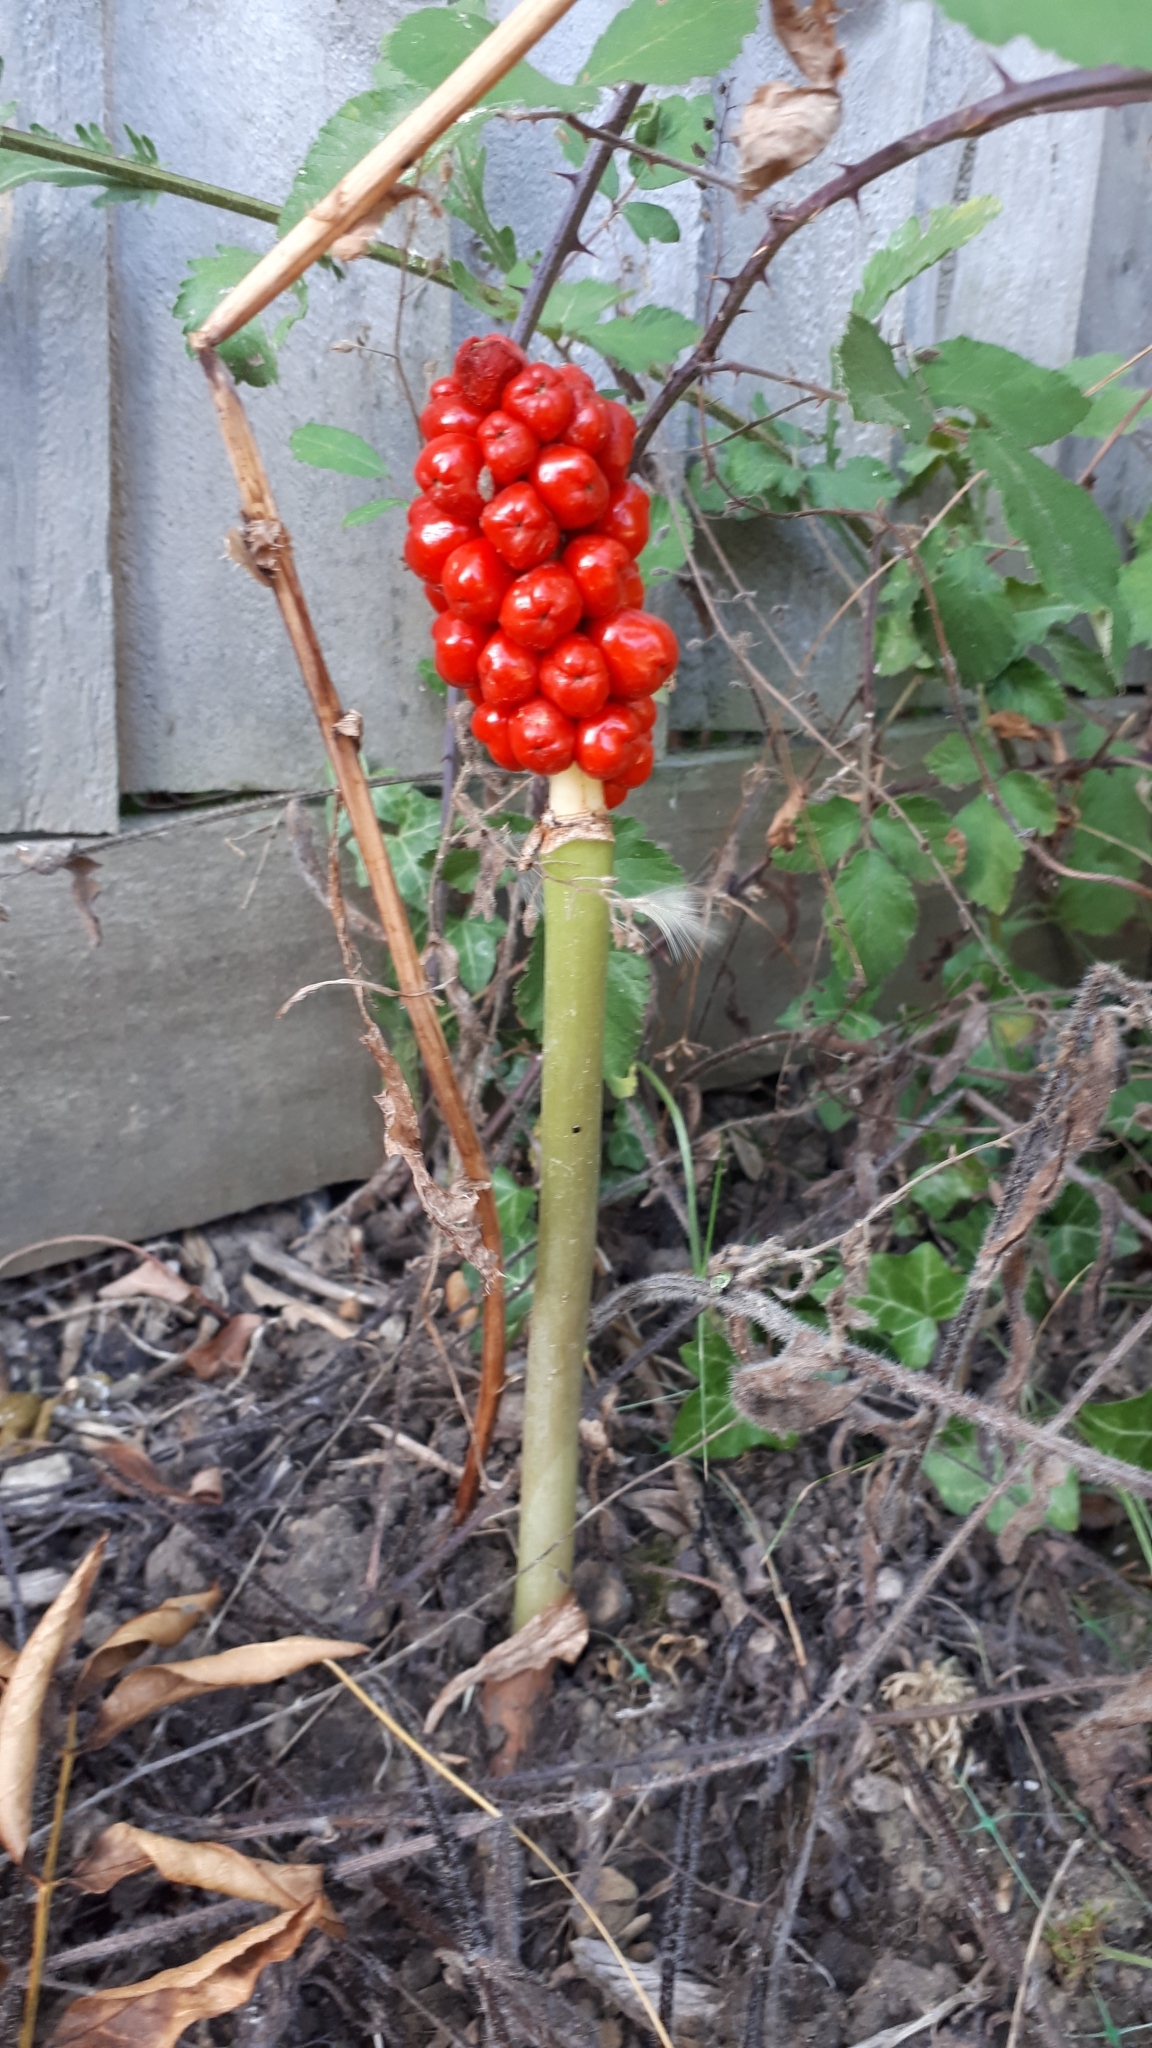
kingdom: Plantae
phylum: Tracheophyta
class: Liliopsida
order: Alismatales
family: Araceae
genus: Arum
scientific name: Arum maculatum
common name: Lords-and-ladies
